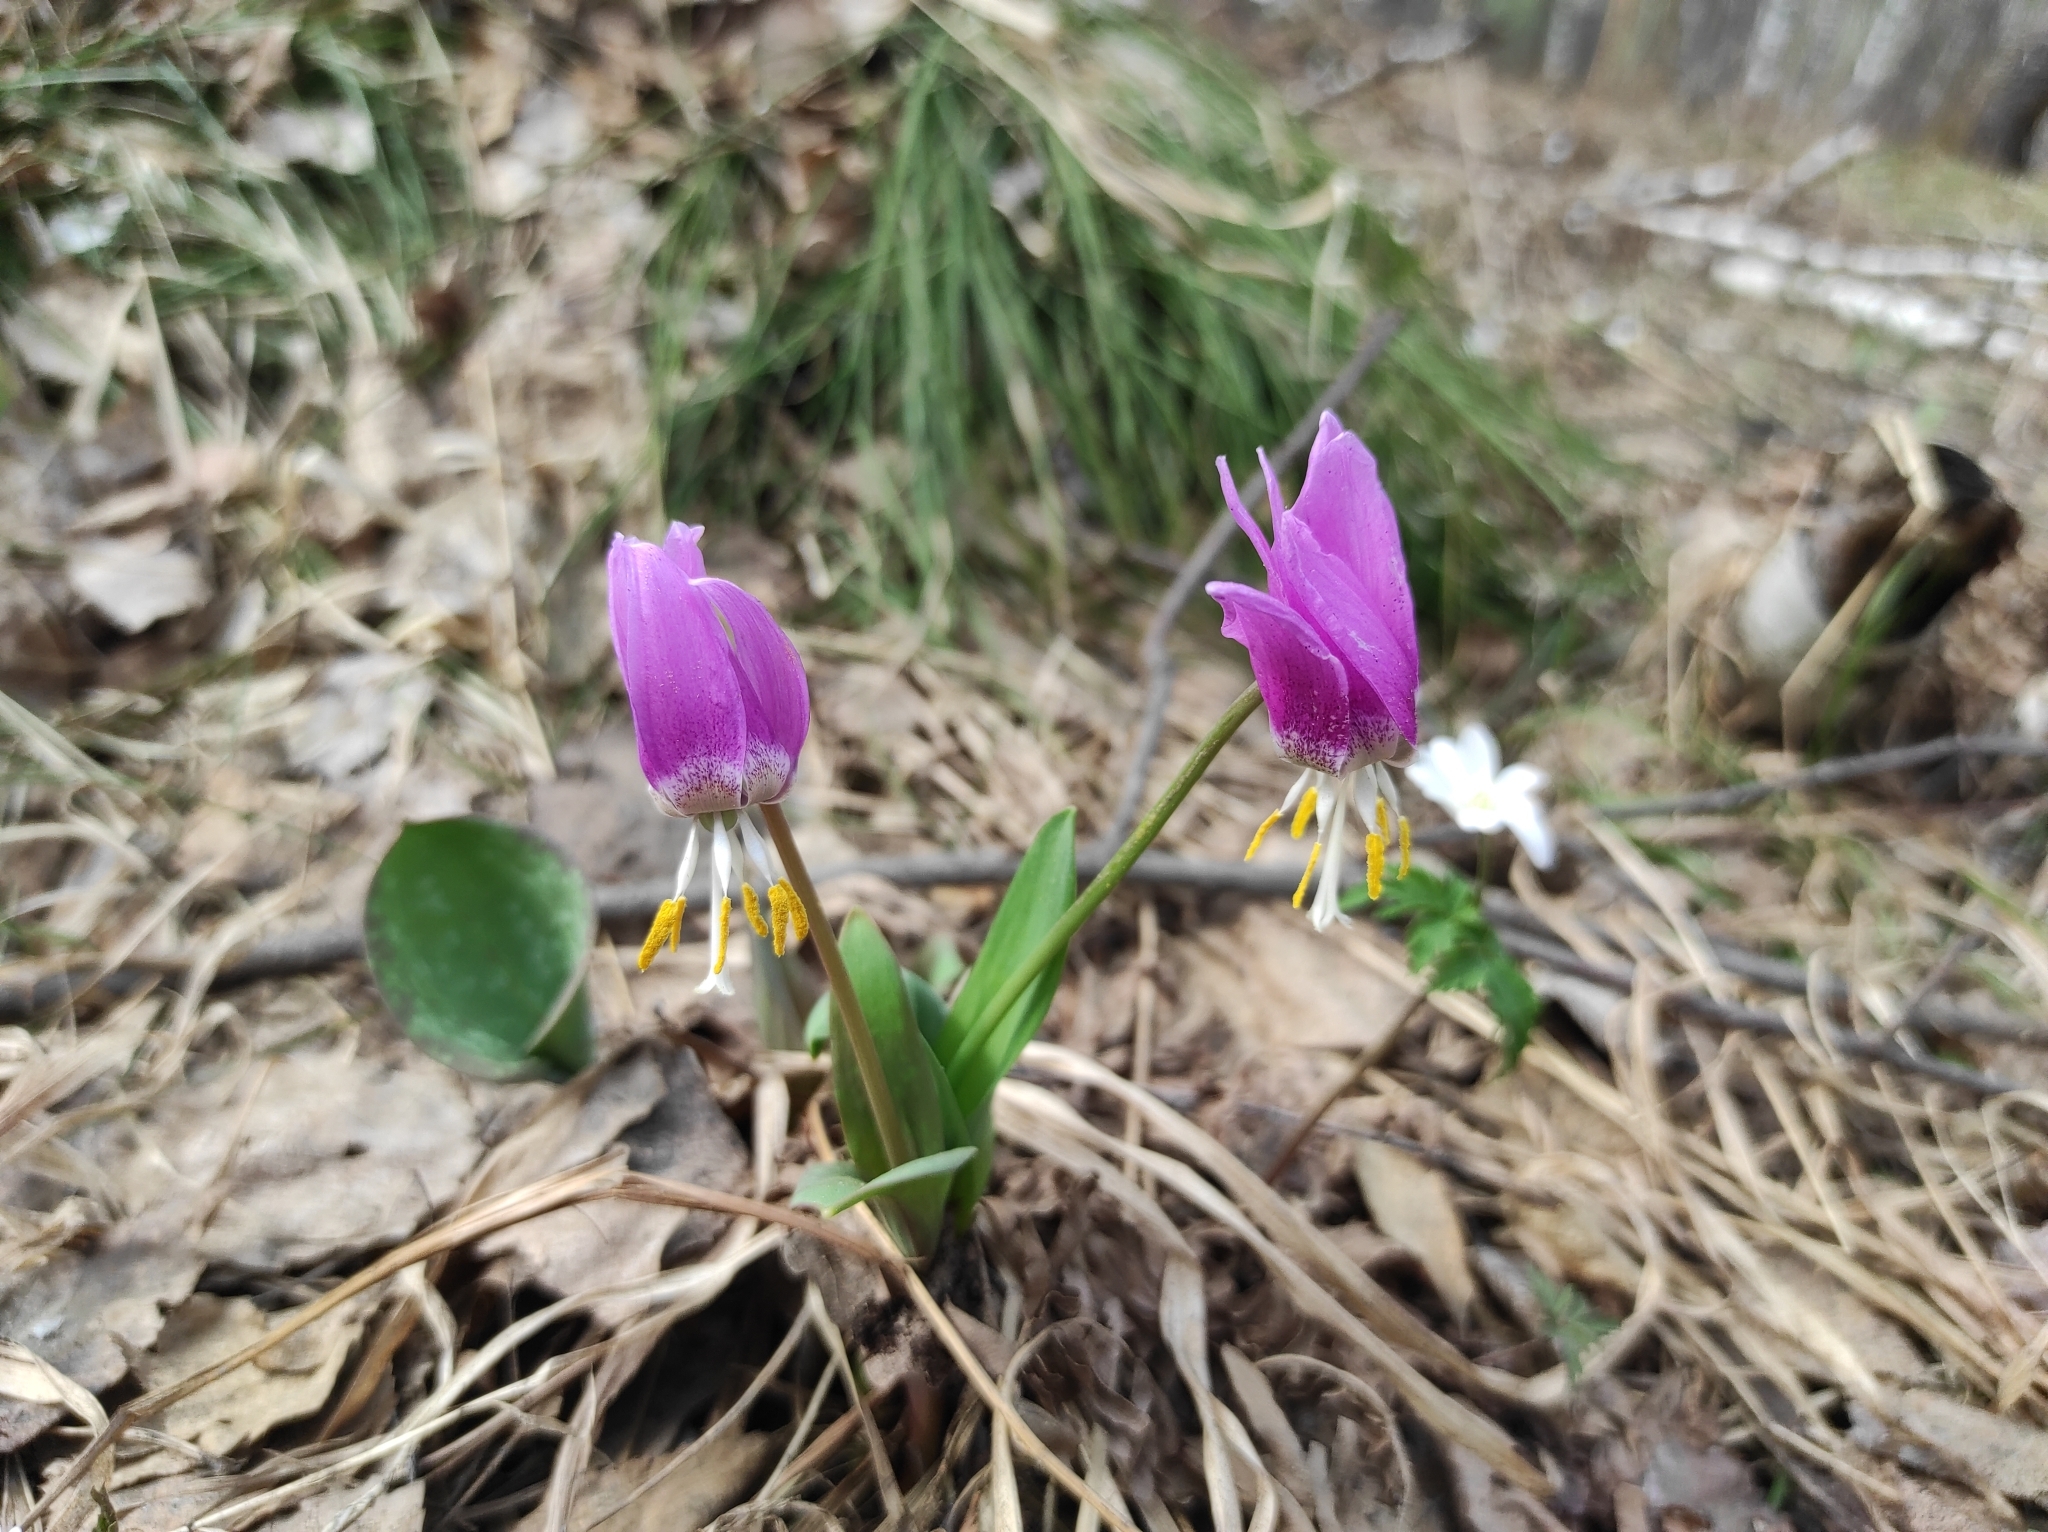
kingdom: Plantae
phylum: Tracheophyta
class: Liliopsida
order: Liliales
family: Liliaceae
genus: Erythronium
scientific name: Erythronium sibiricum
